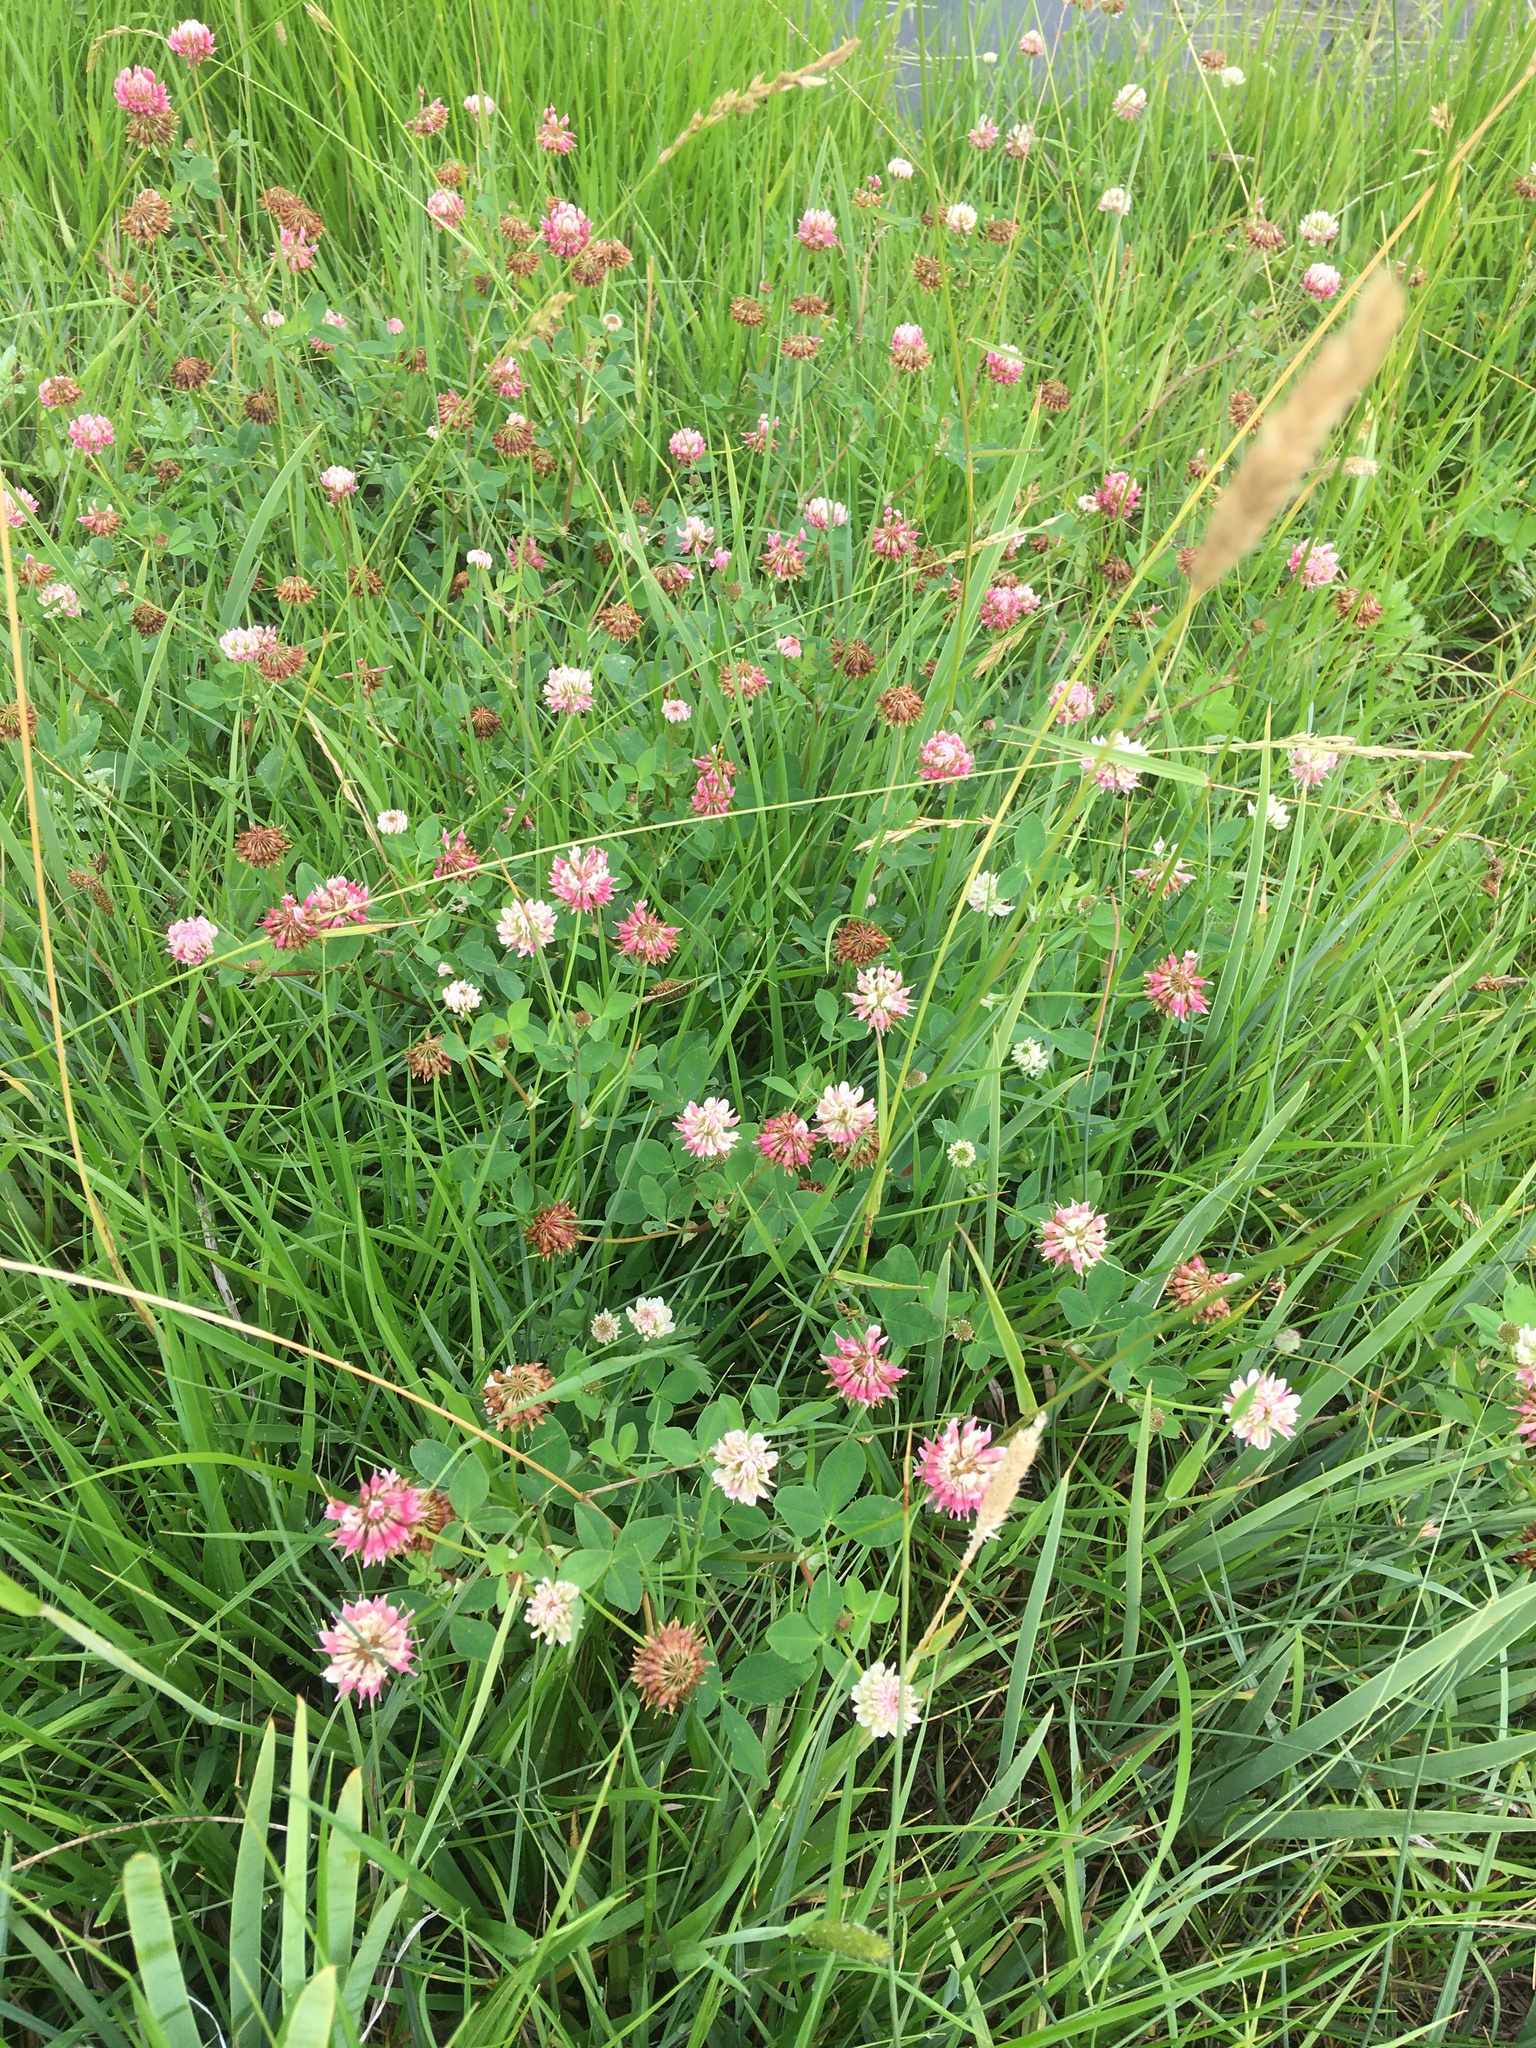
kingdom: Plantae
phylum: Tracheophyta
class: Magnoliopsida
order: Fabales
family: Fabaceae
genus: Trifolium
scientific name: Trifolium hybridum
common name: Alsike clover
